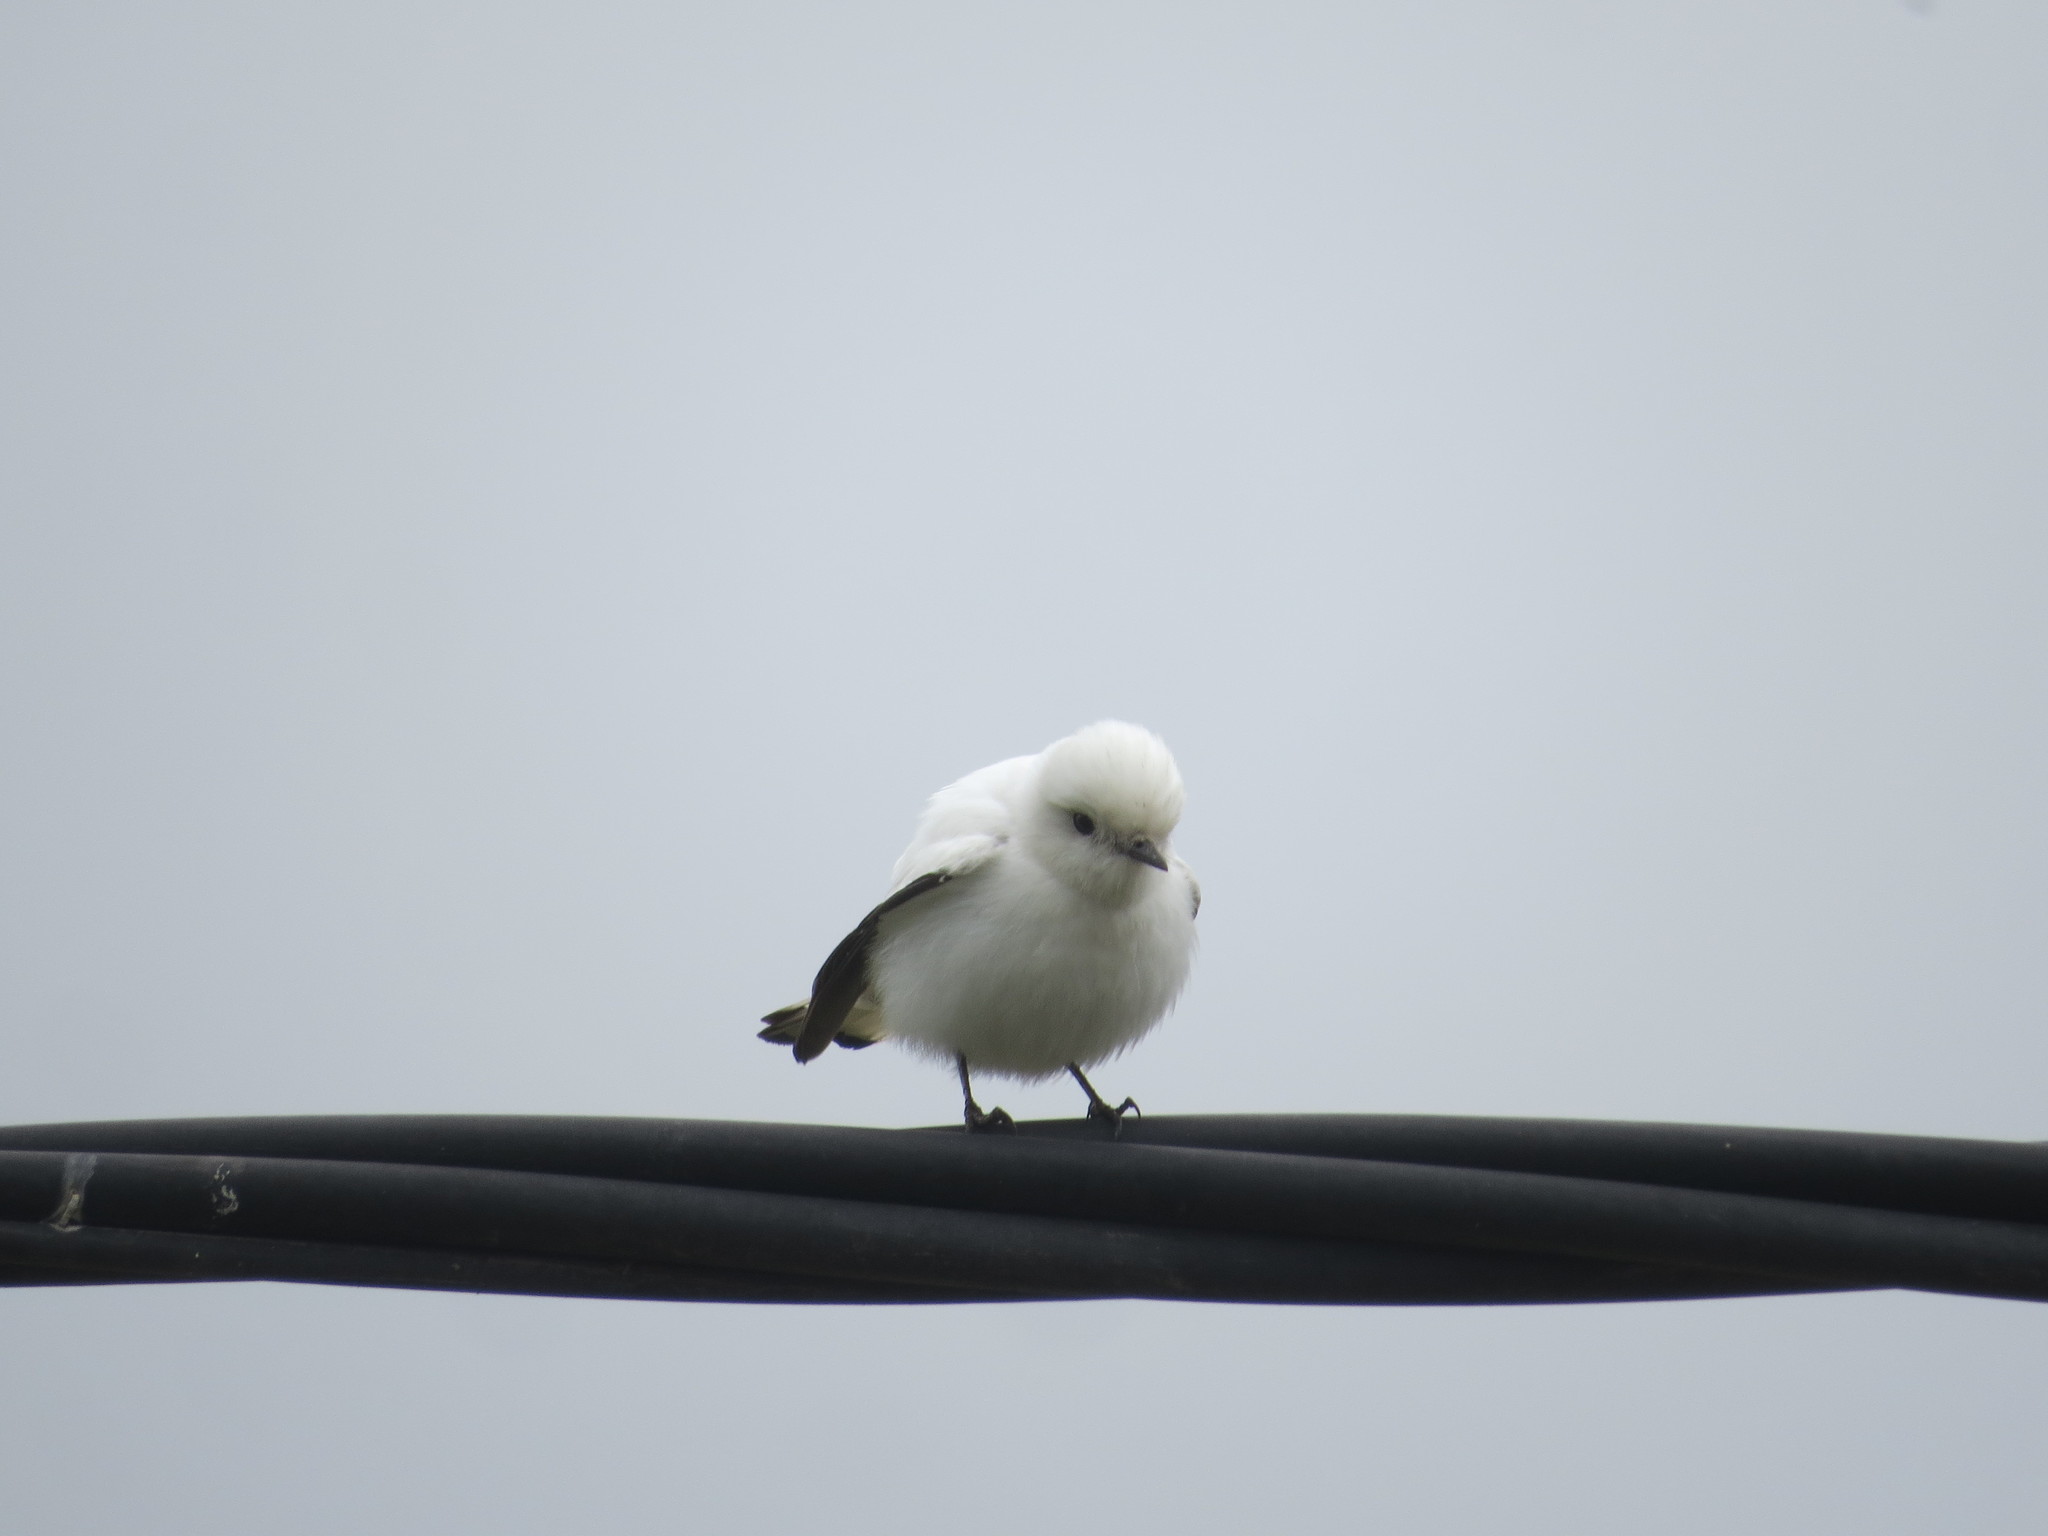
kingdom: Animalia
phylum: Chordata
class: Aves
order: Passeriformes
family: Tyrannidae
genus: Xolmis
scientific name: Xolmis irupero
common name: White monjita
